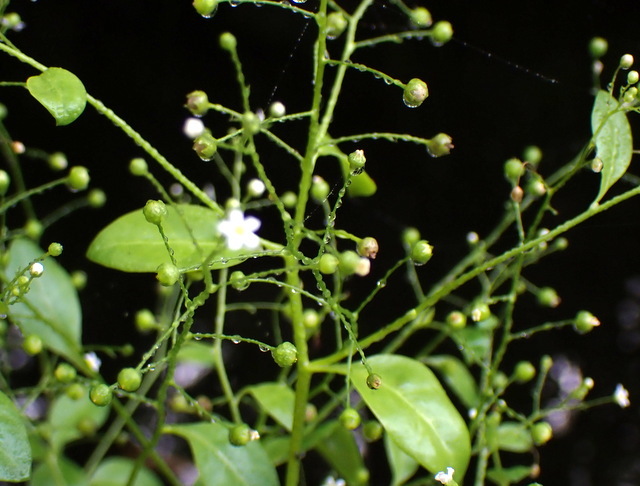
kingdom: Plantae
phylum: Tracheophyta
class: Magnoliopsida
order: Ericales
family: Primulaceae
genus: Samolus
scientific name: Samolus parviflorus
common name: False water pimpernel
